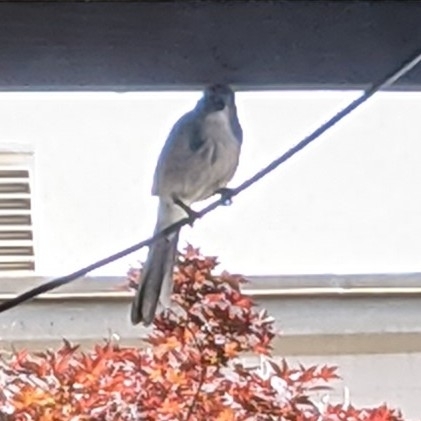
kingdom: Animalia
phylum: Chordata
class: Aves
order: Passeriformes
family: Corvidae
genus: Aphelocoma
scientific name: Aphelocoma californica
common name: California scrub-jay
